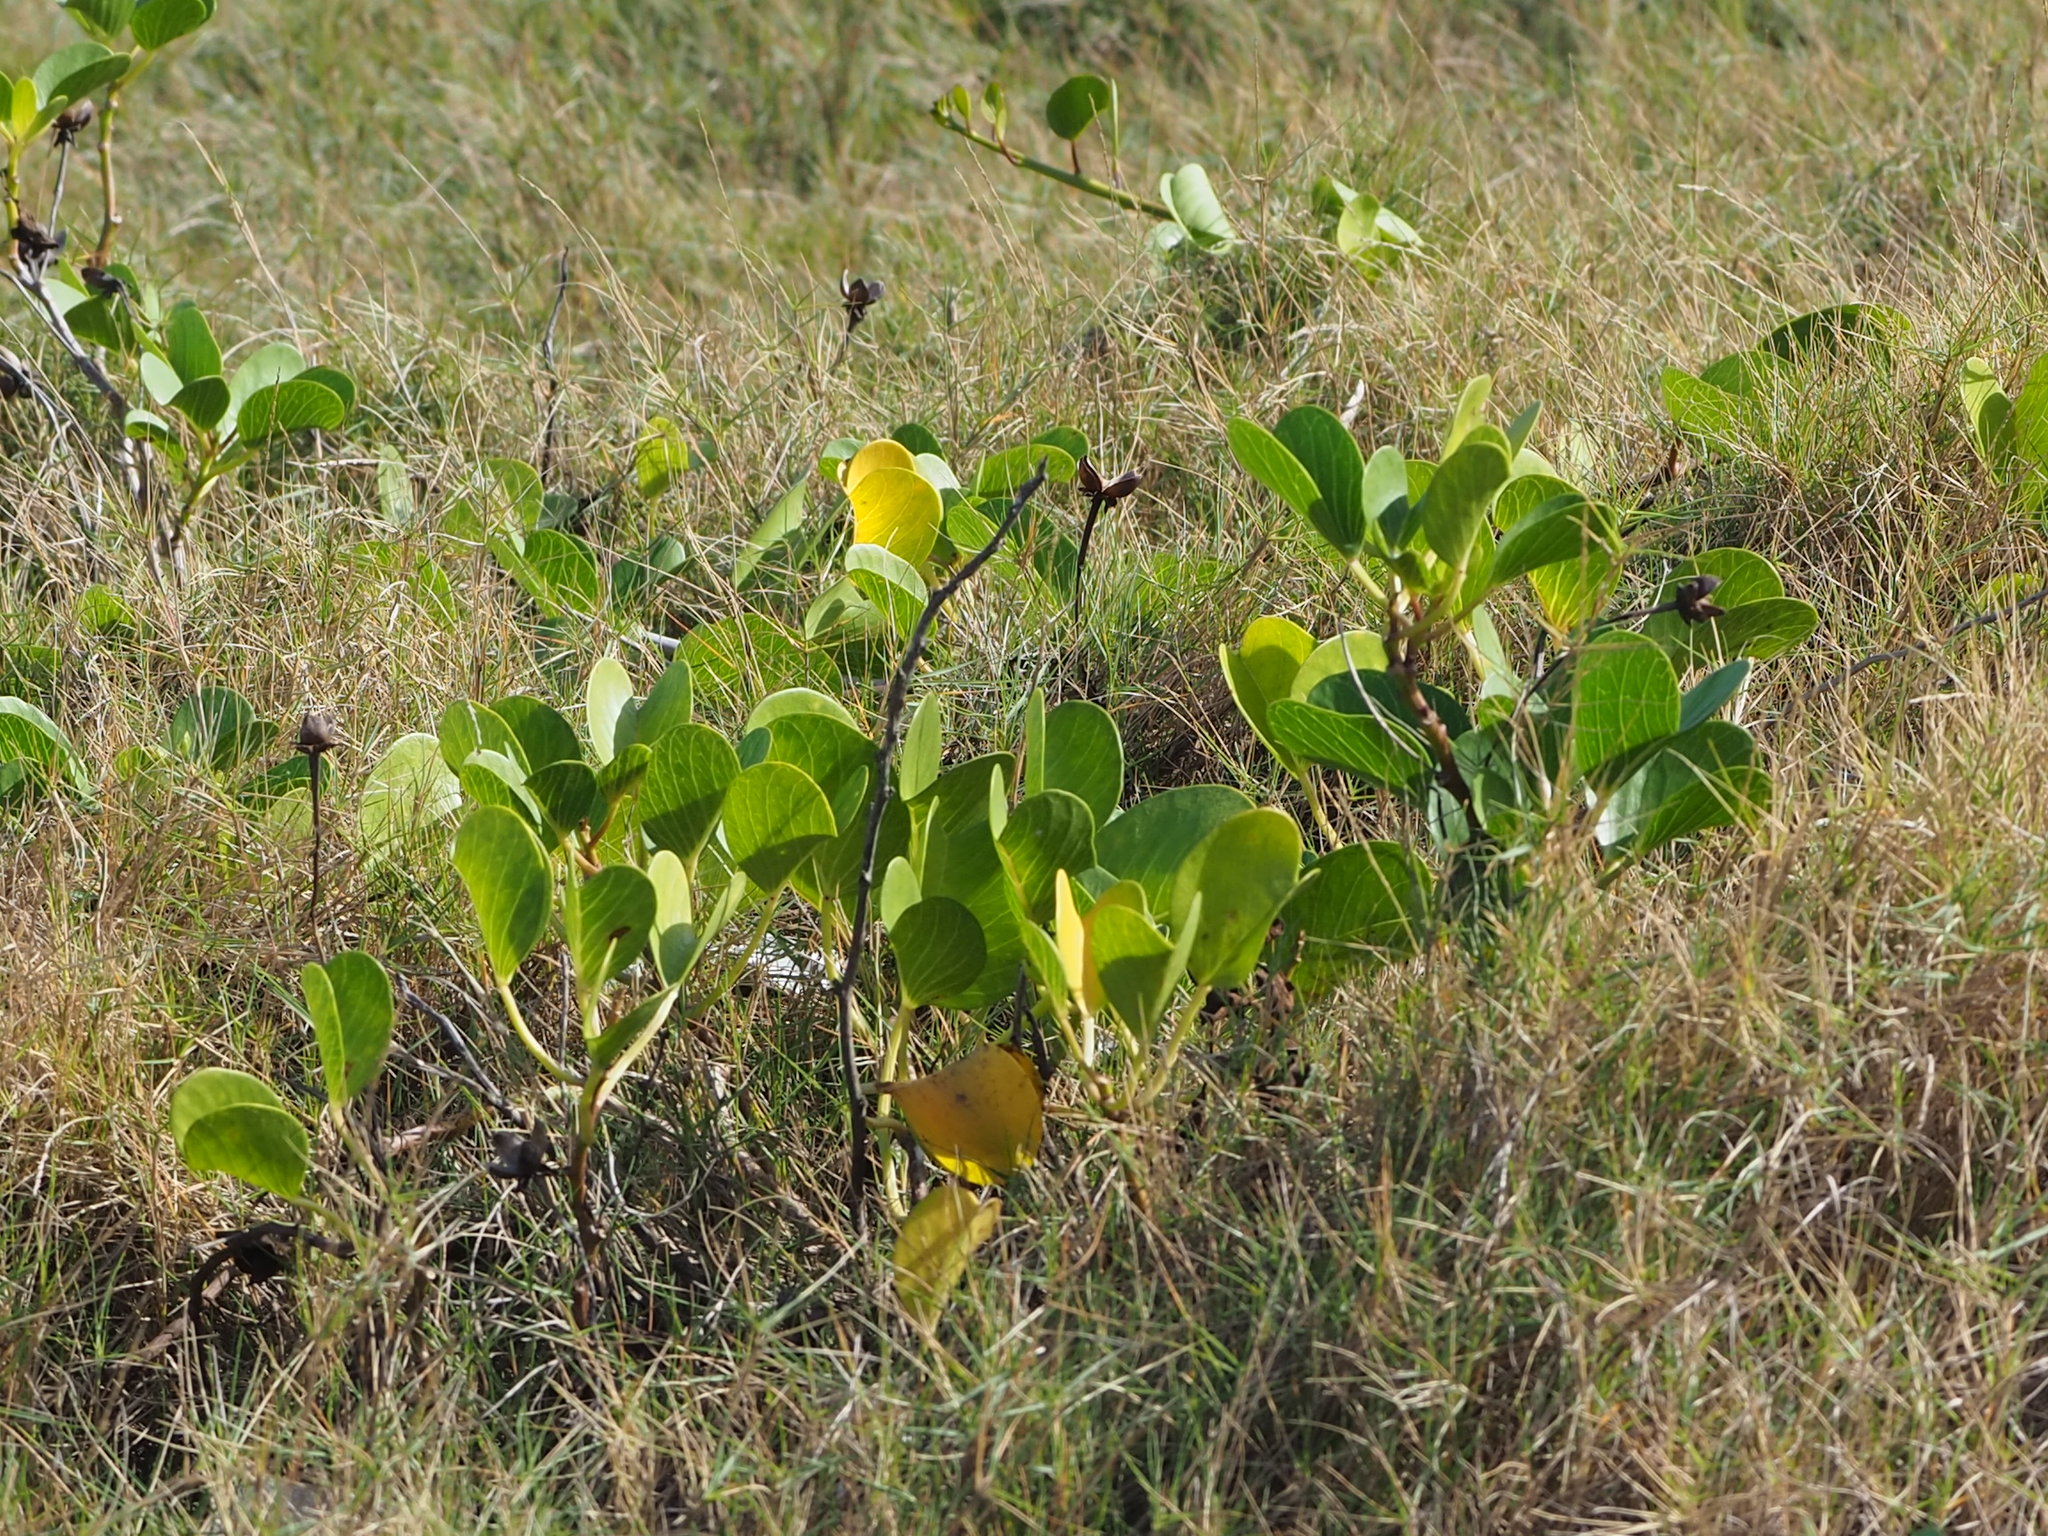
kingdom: Plantae
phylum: Tracheophyta
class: Magnoliopsida
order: Solanales
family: Convolvulaceae
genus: Ipomoea
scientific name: Ipomoea pes-caprae
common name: Beach morning glory
